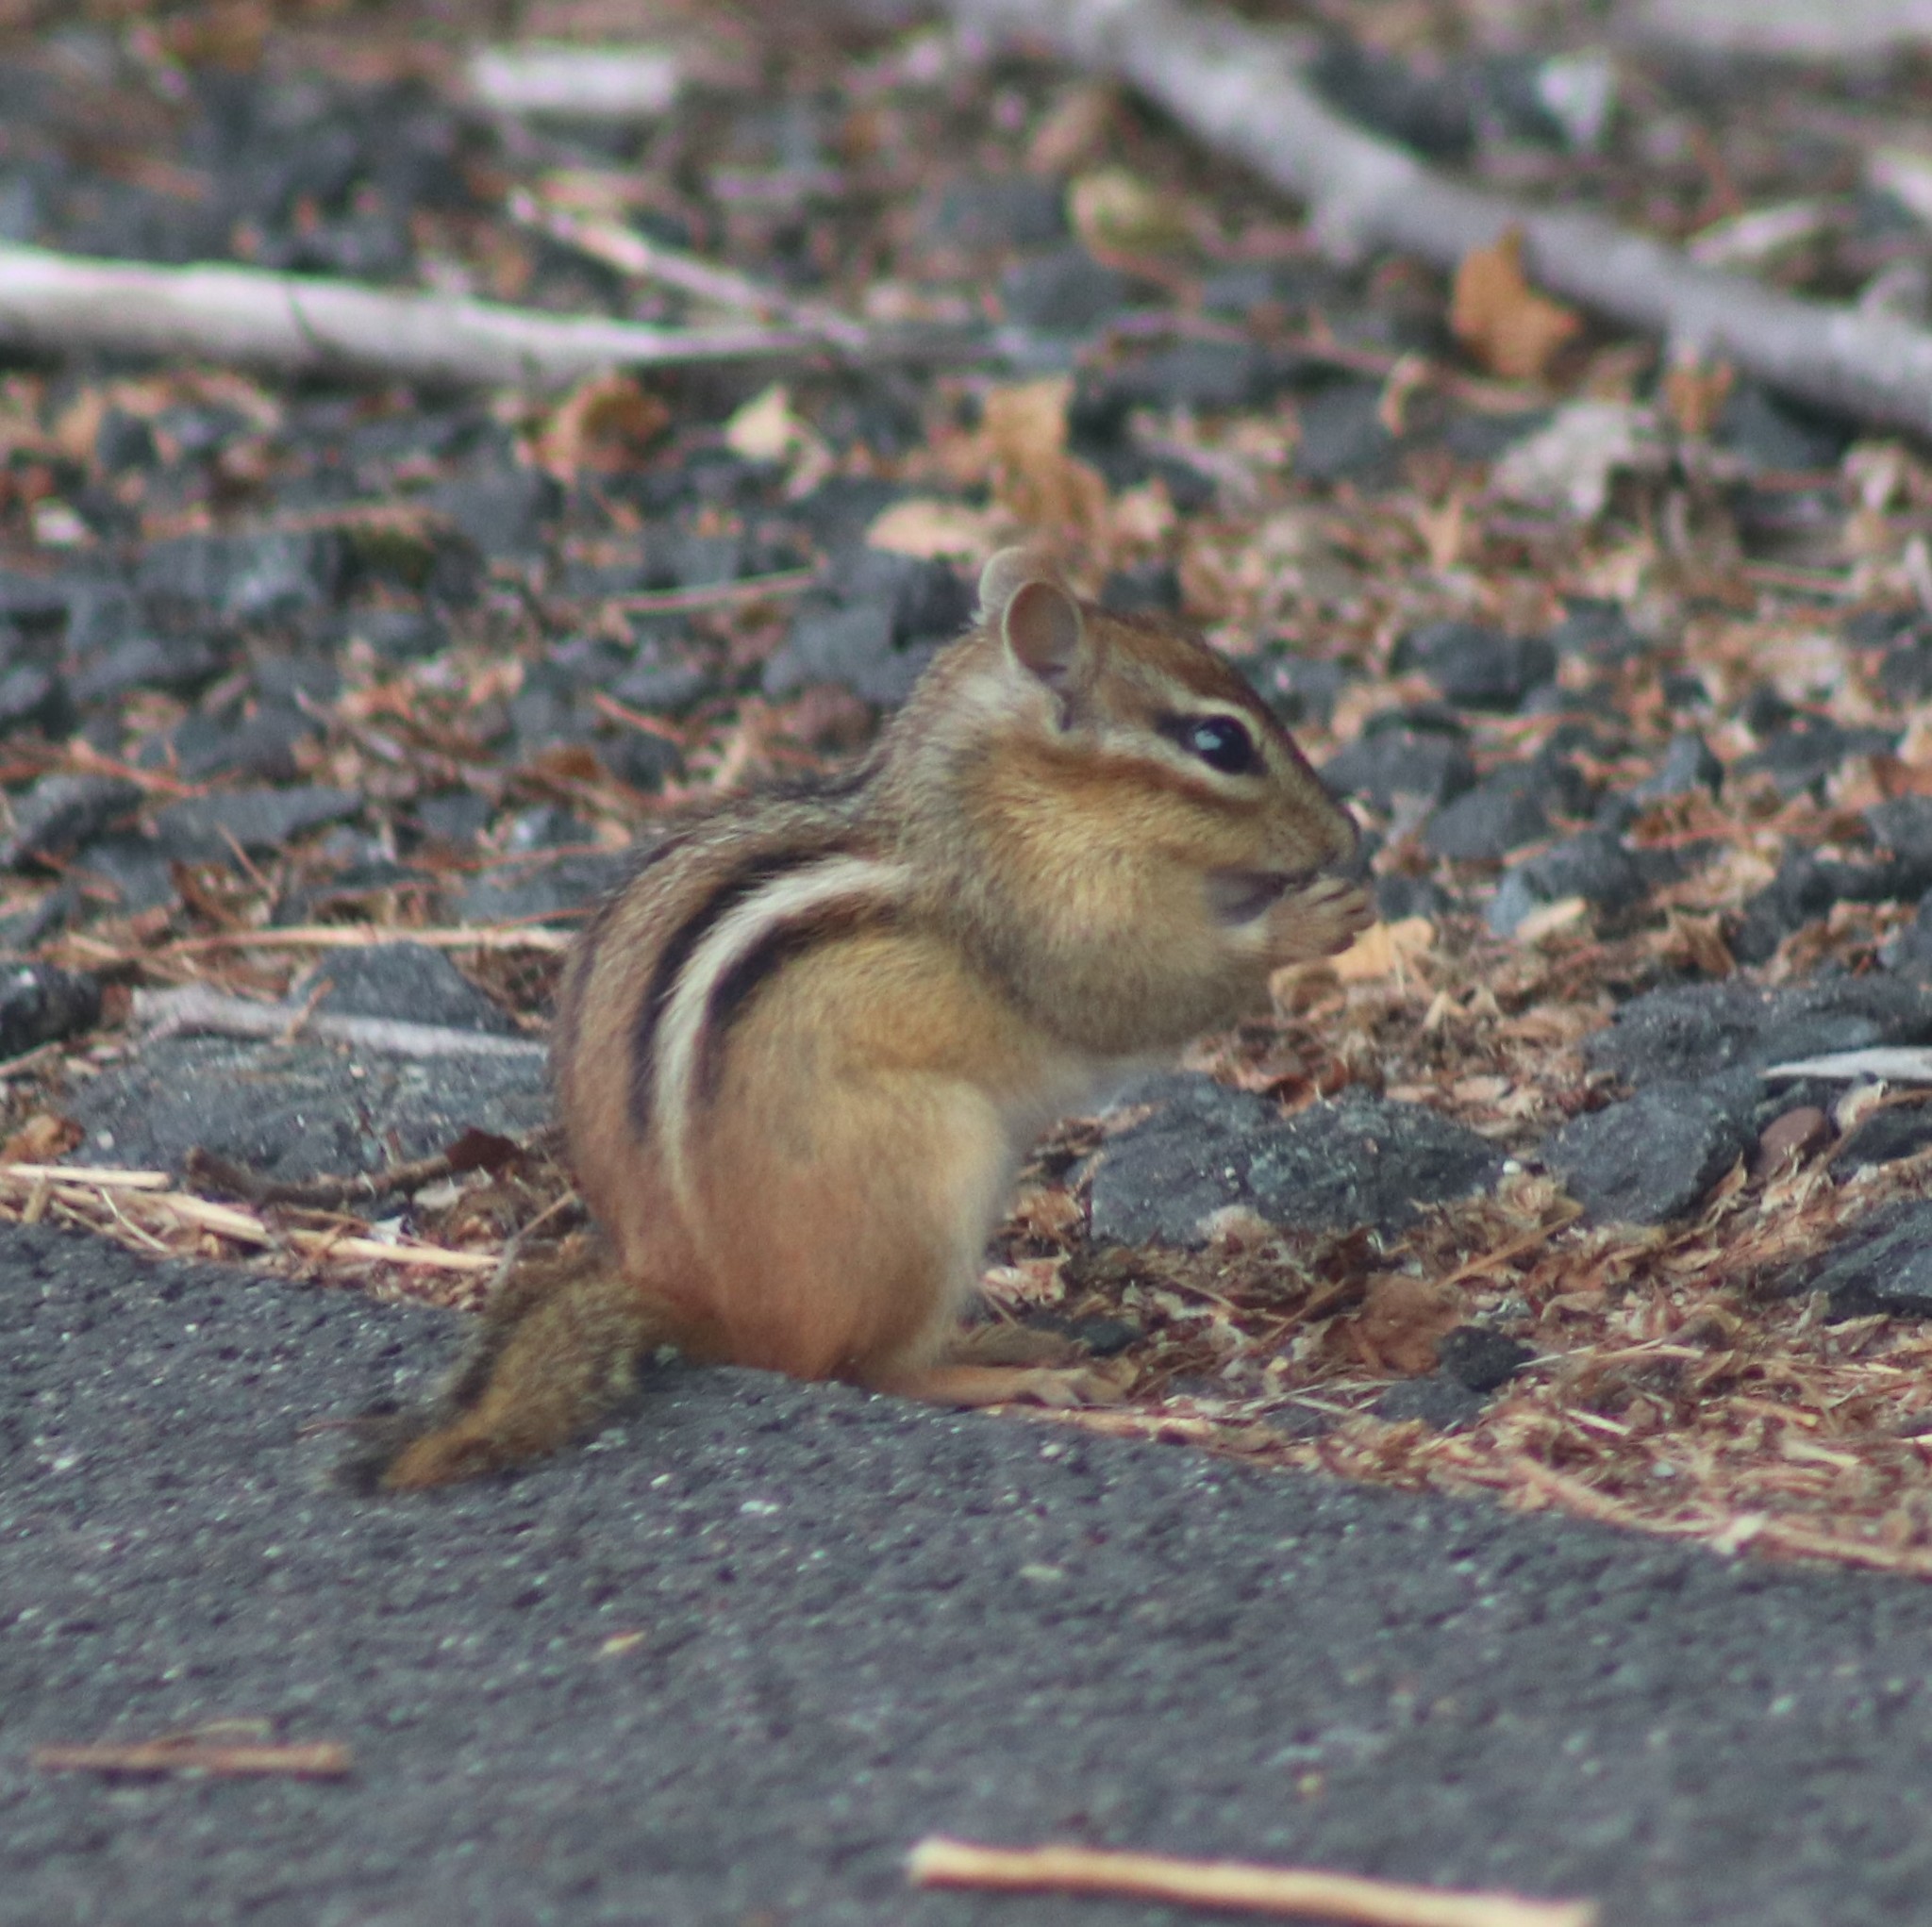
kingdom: Animalia
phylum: Chordata
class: Mammalia
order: Rodentia
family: Sciuridae
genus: Tamias
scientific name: Tamias striatus
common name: Eastern chipmunk
